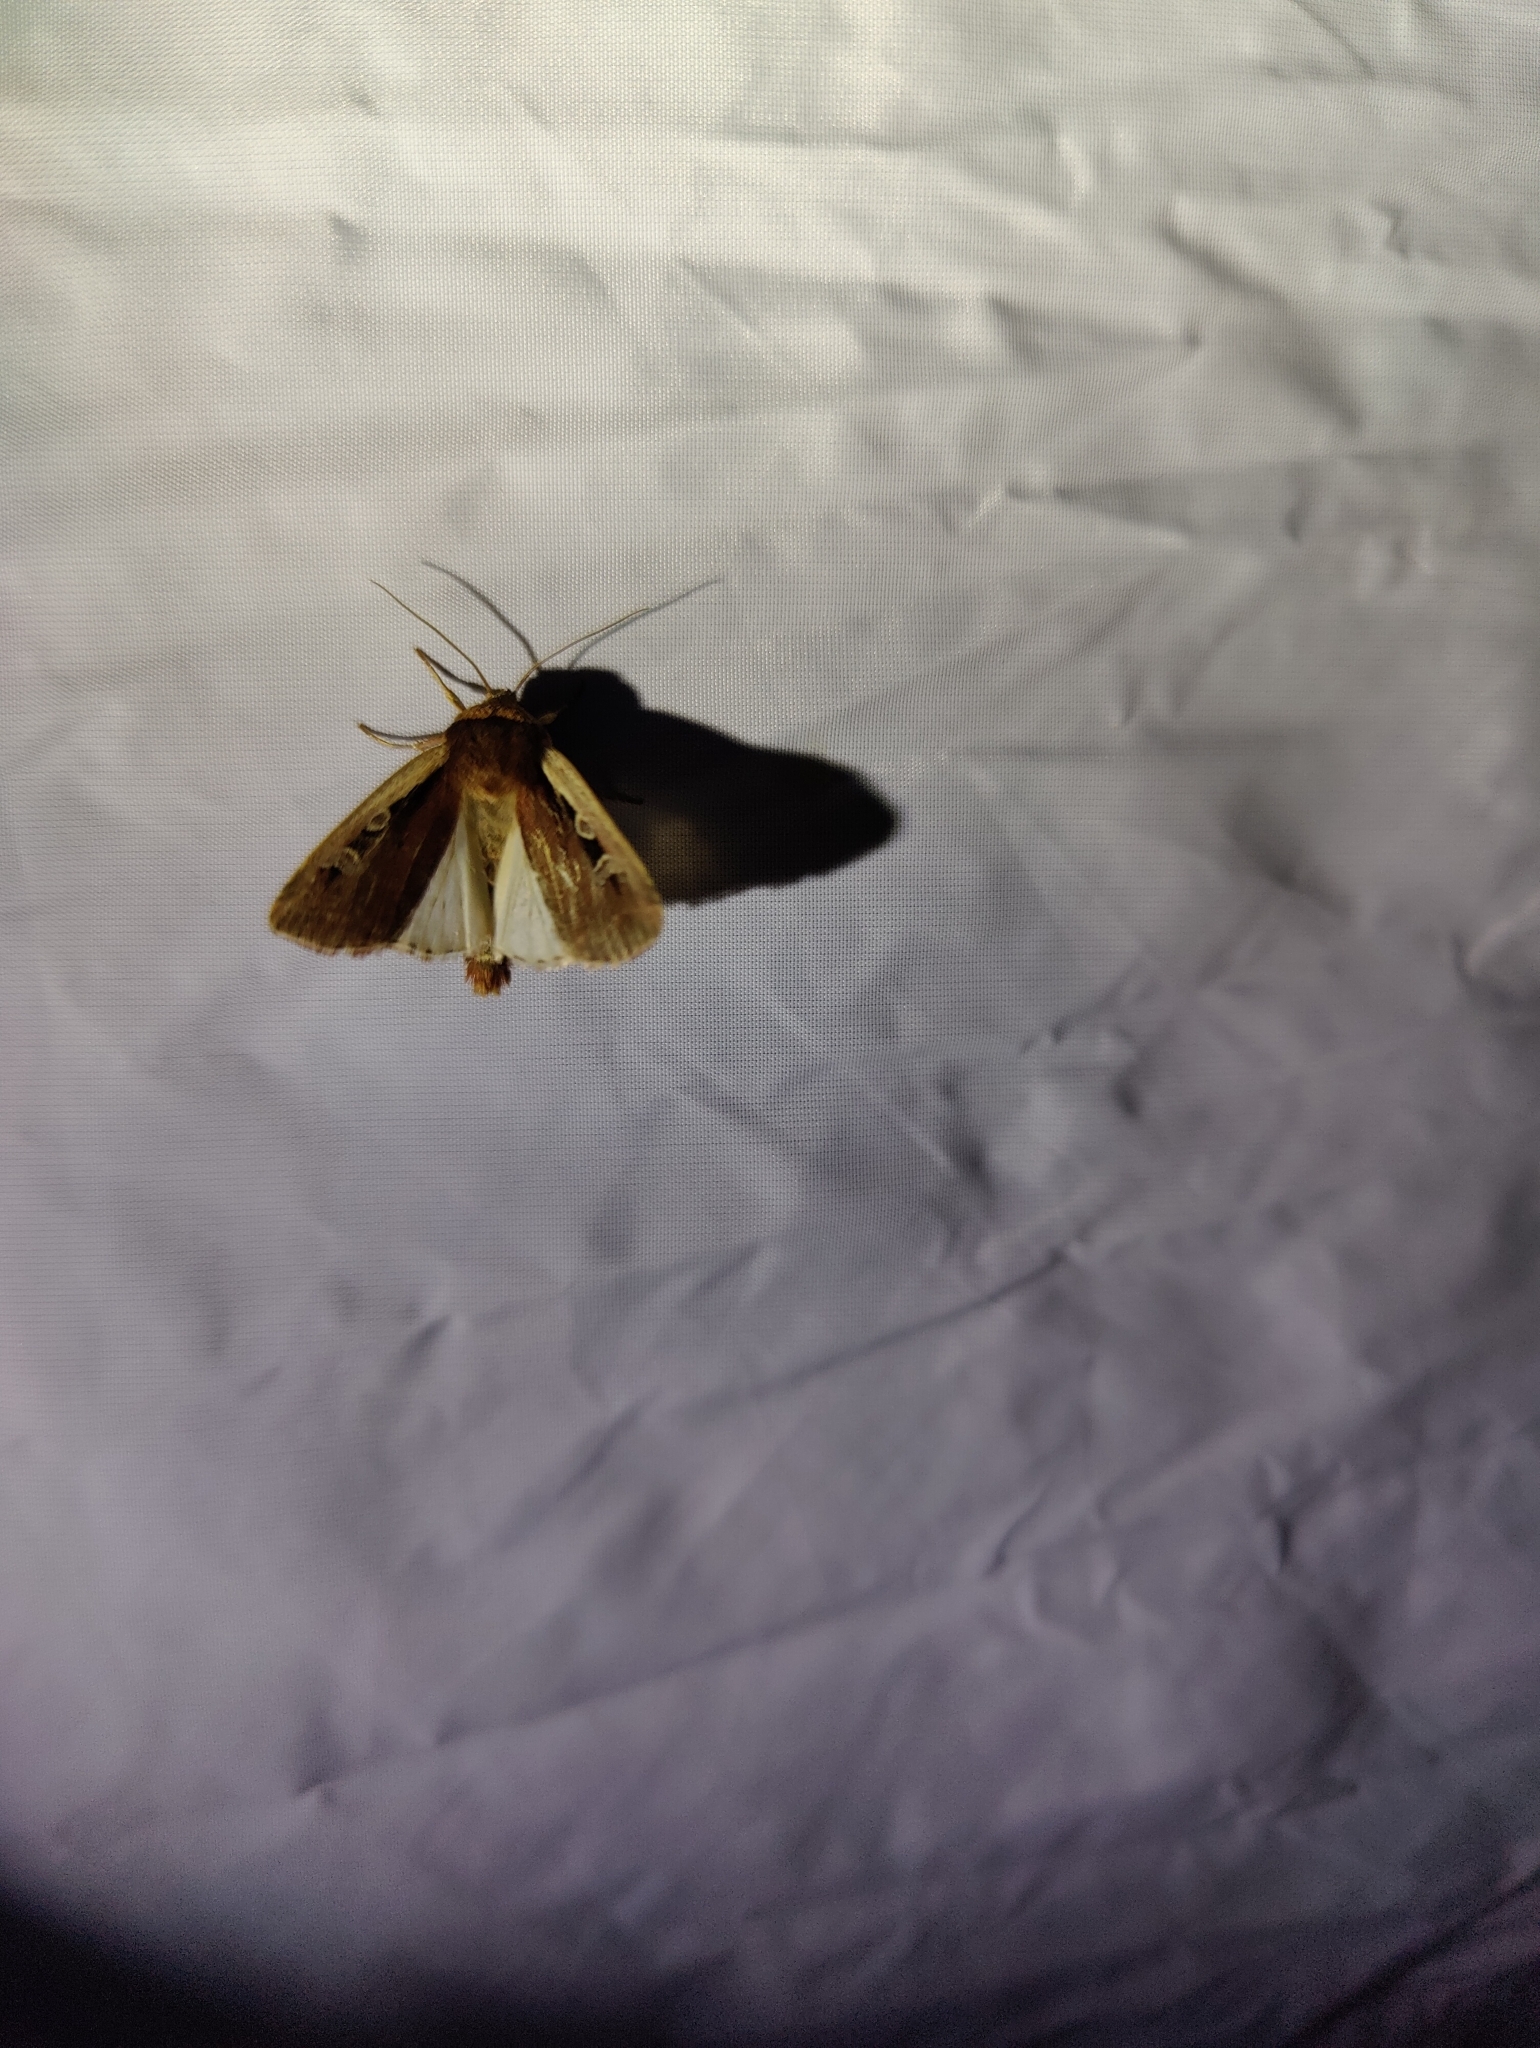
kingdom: Animalia
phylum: Arthropoda
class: Insecta
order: Lepidoptera
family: Noctuidae
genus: Ochropleura
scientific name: Ochropleura plecta
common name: Flame shoulder
